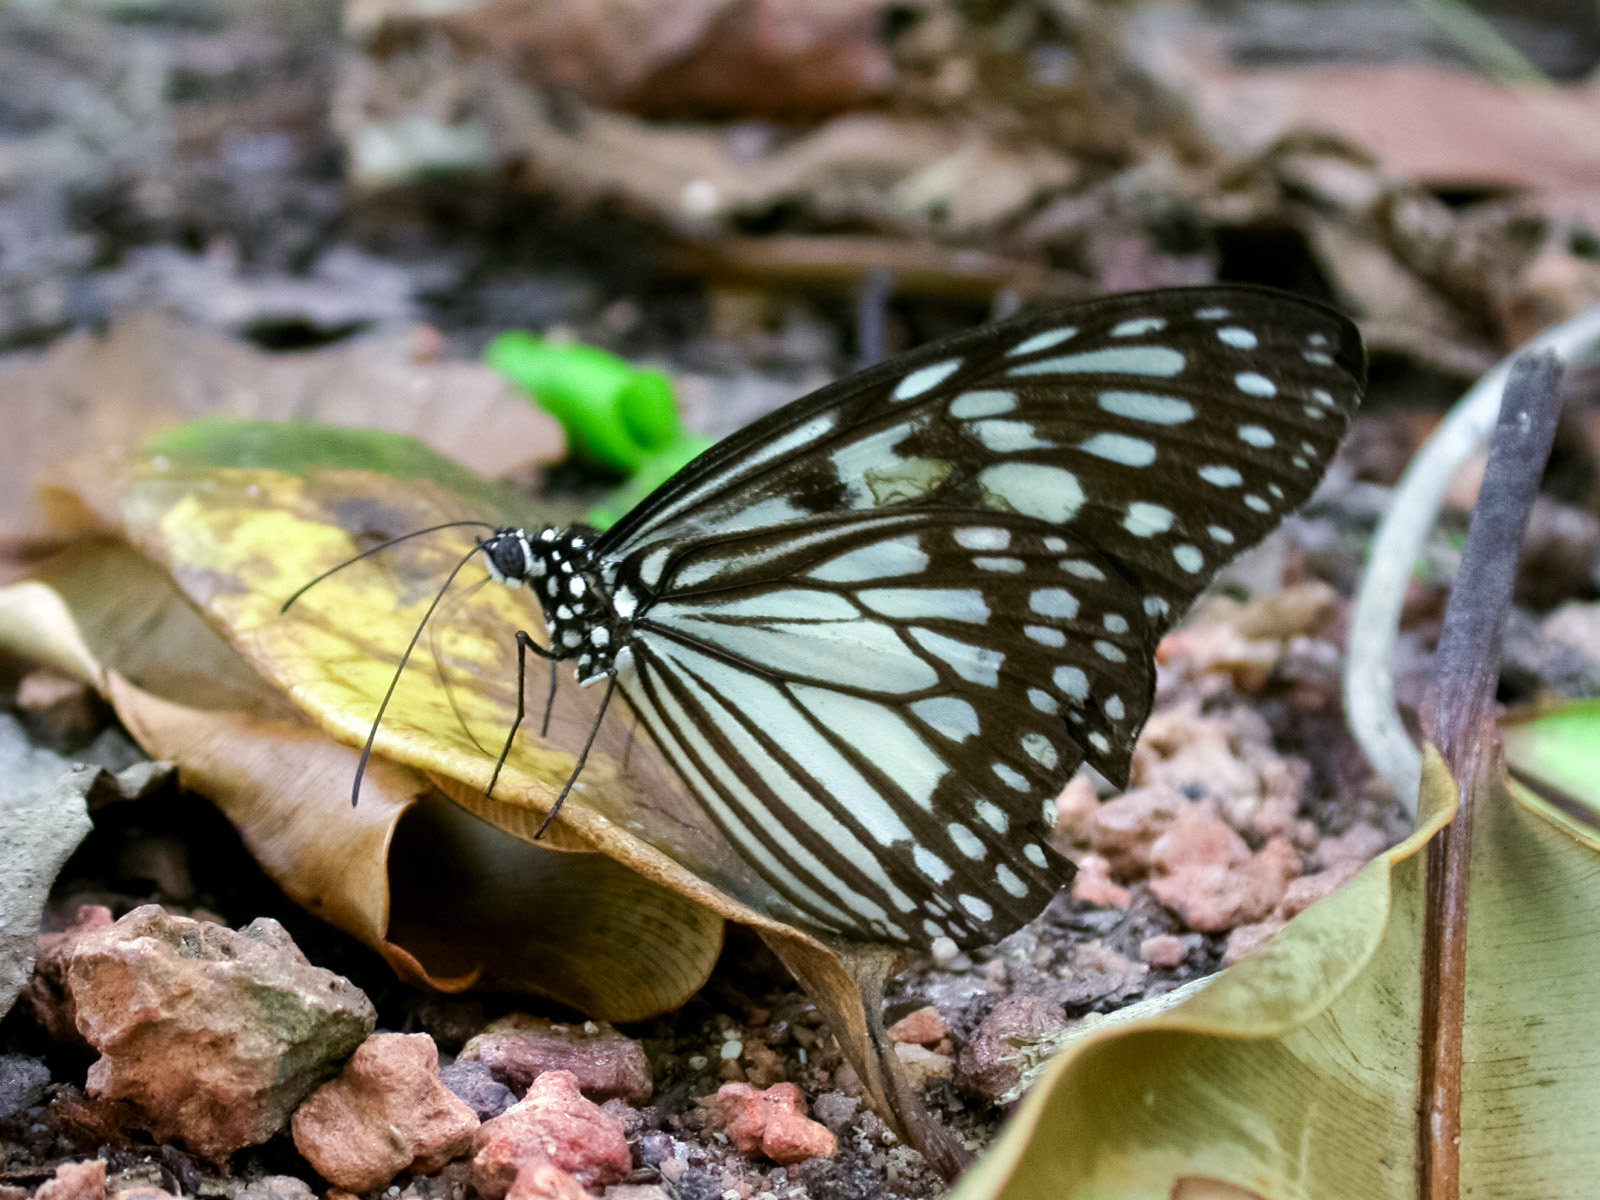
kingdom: Animalia
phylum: Arthropoda
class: Insecta
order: Lepidoptera
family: Nymphalidae
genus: Ideopsis
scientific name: Ideopsis juventa
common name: Grey glassy tiger
